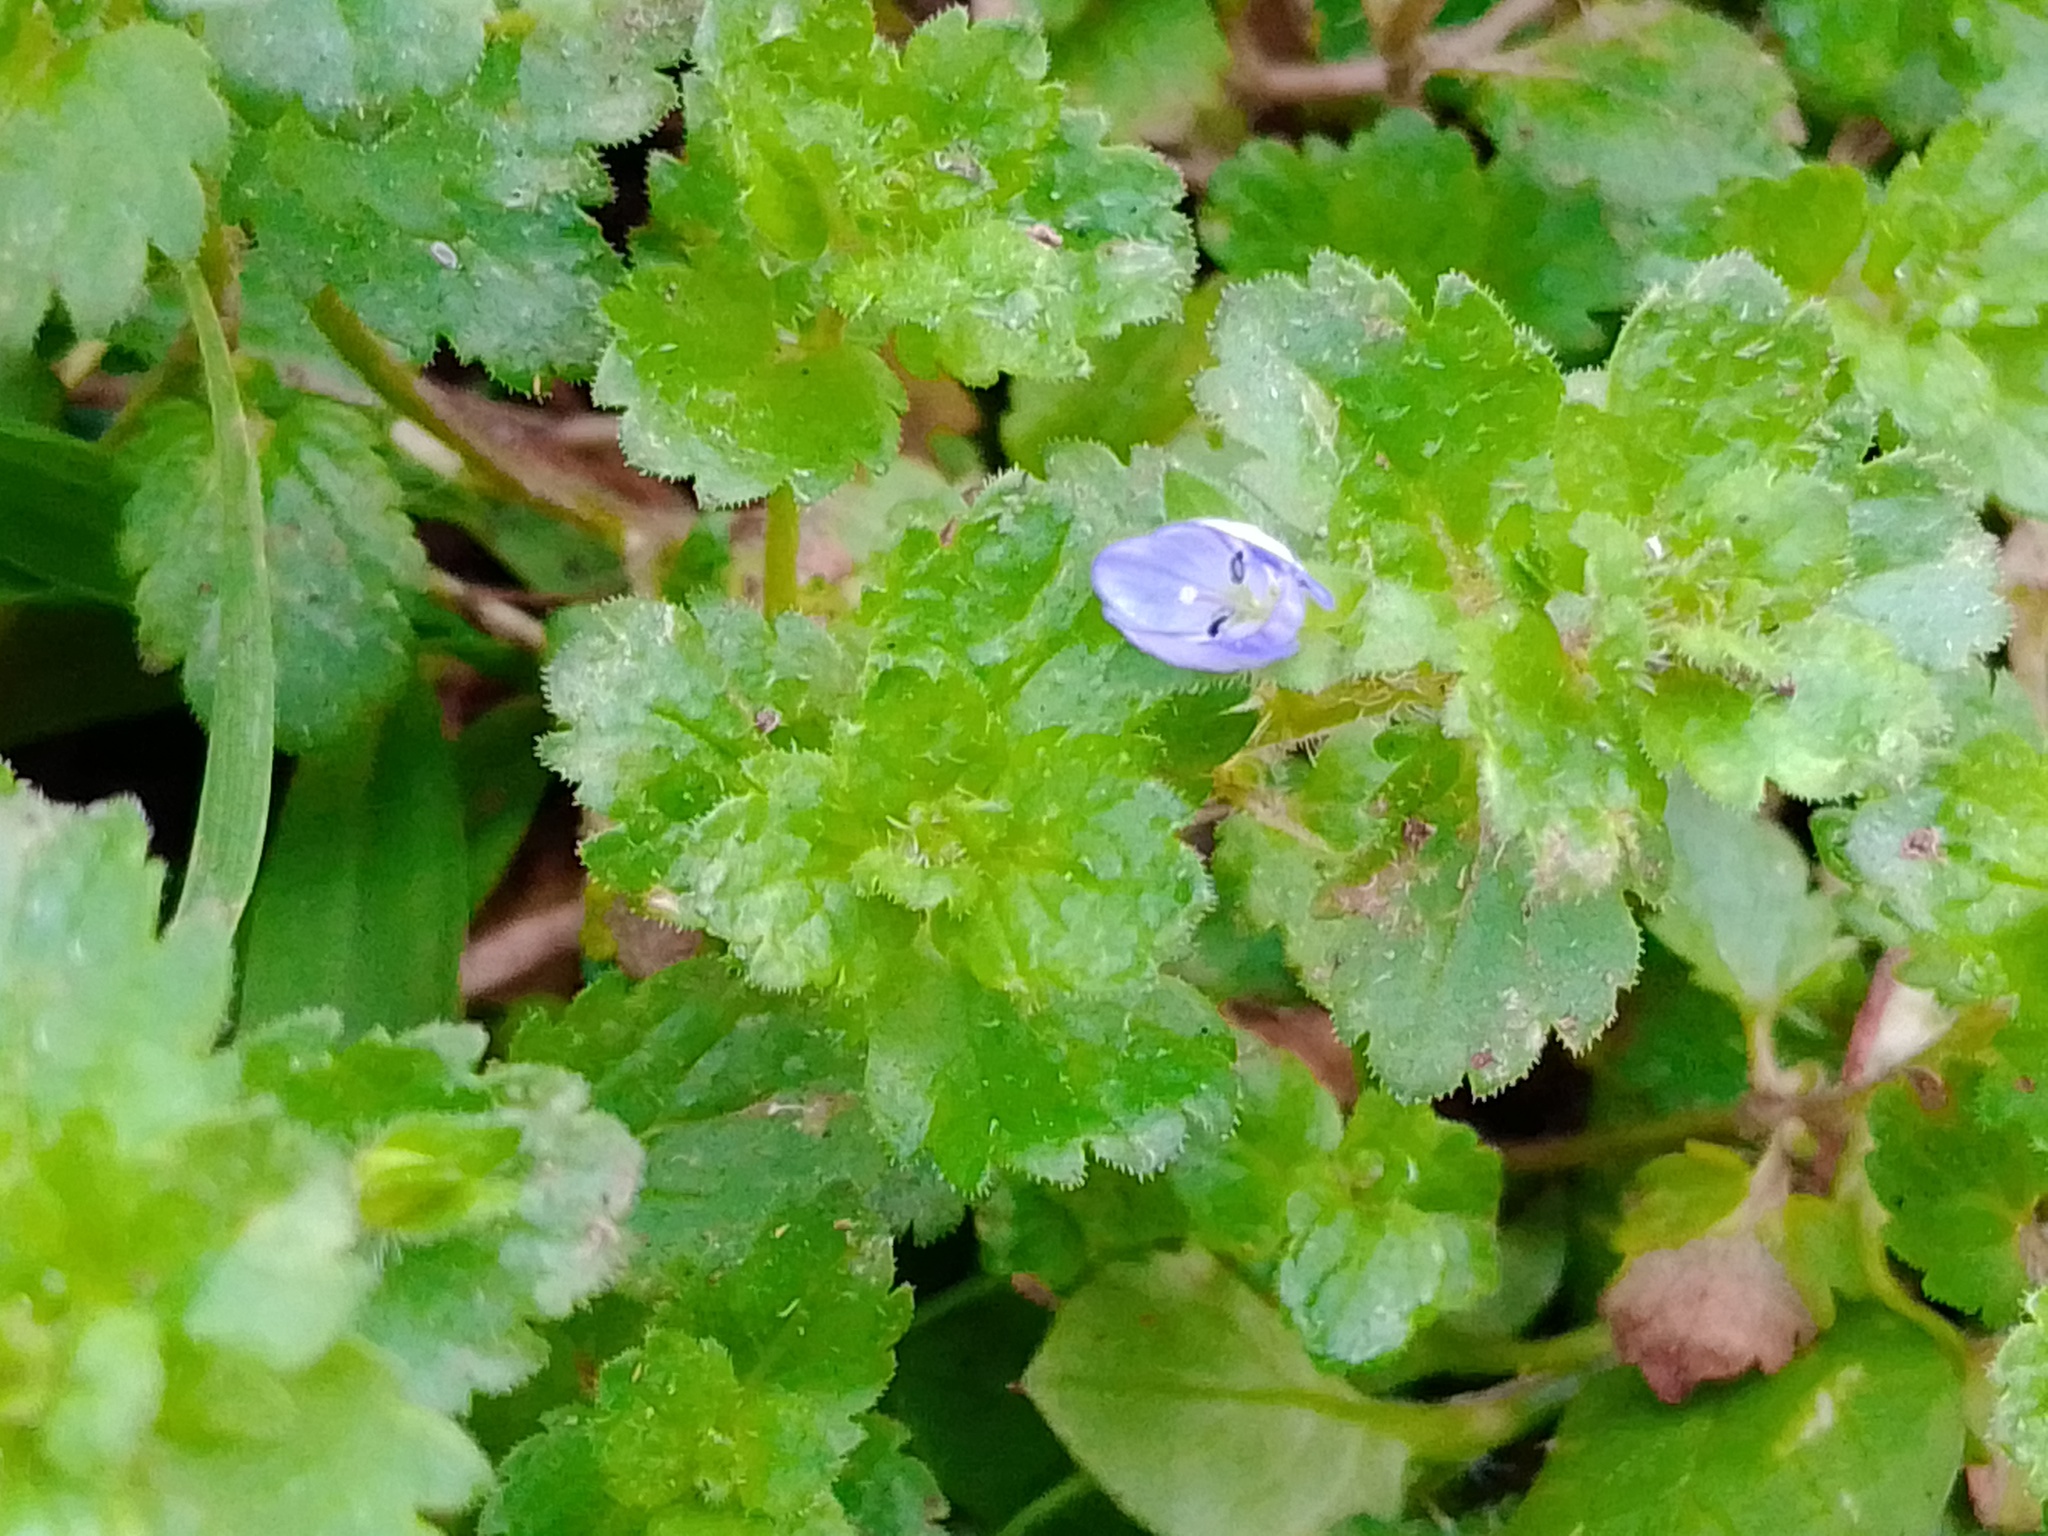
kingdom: Plantae
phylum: Tracheophyta
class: Magnoliopsida
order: Lamiales
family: Plantaginaceae
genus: Veronica
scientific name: Veronica persica
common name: Common field-speedwell
